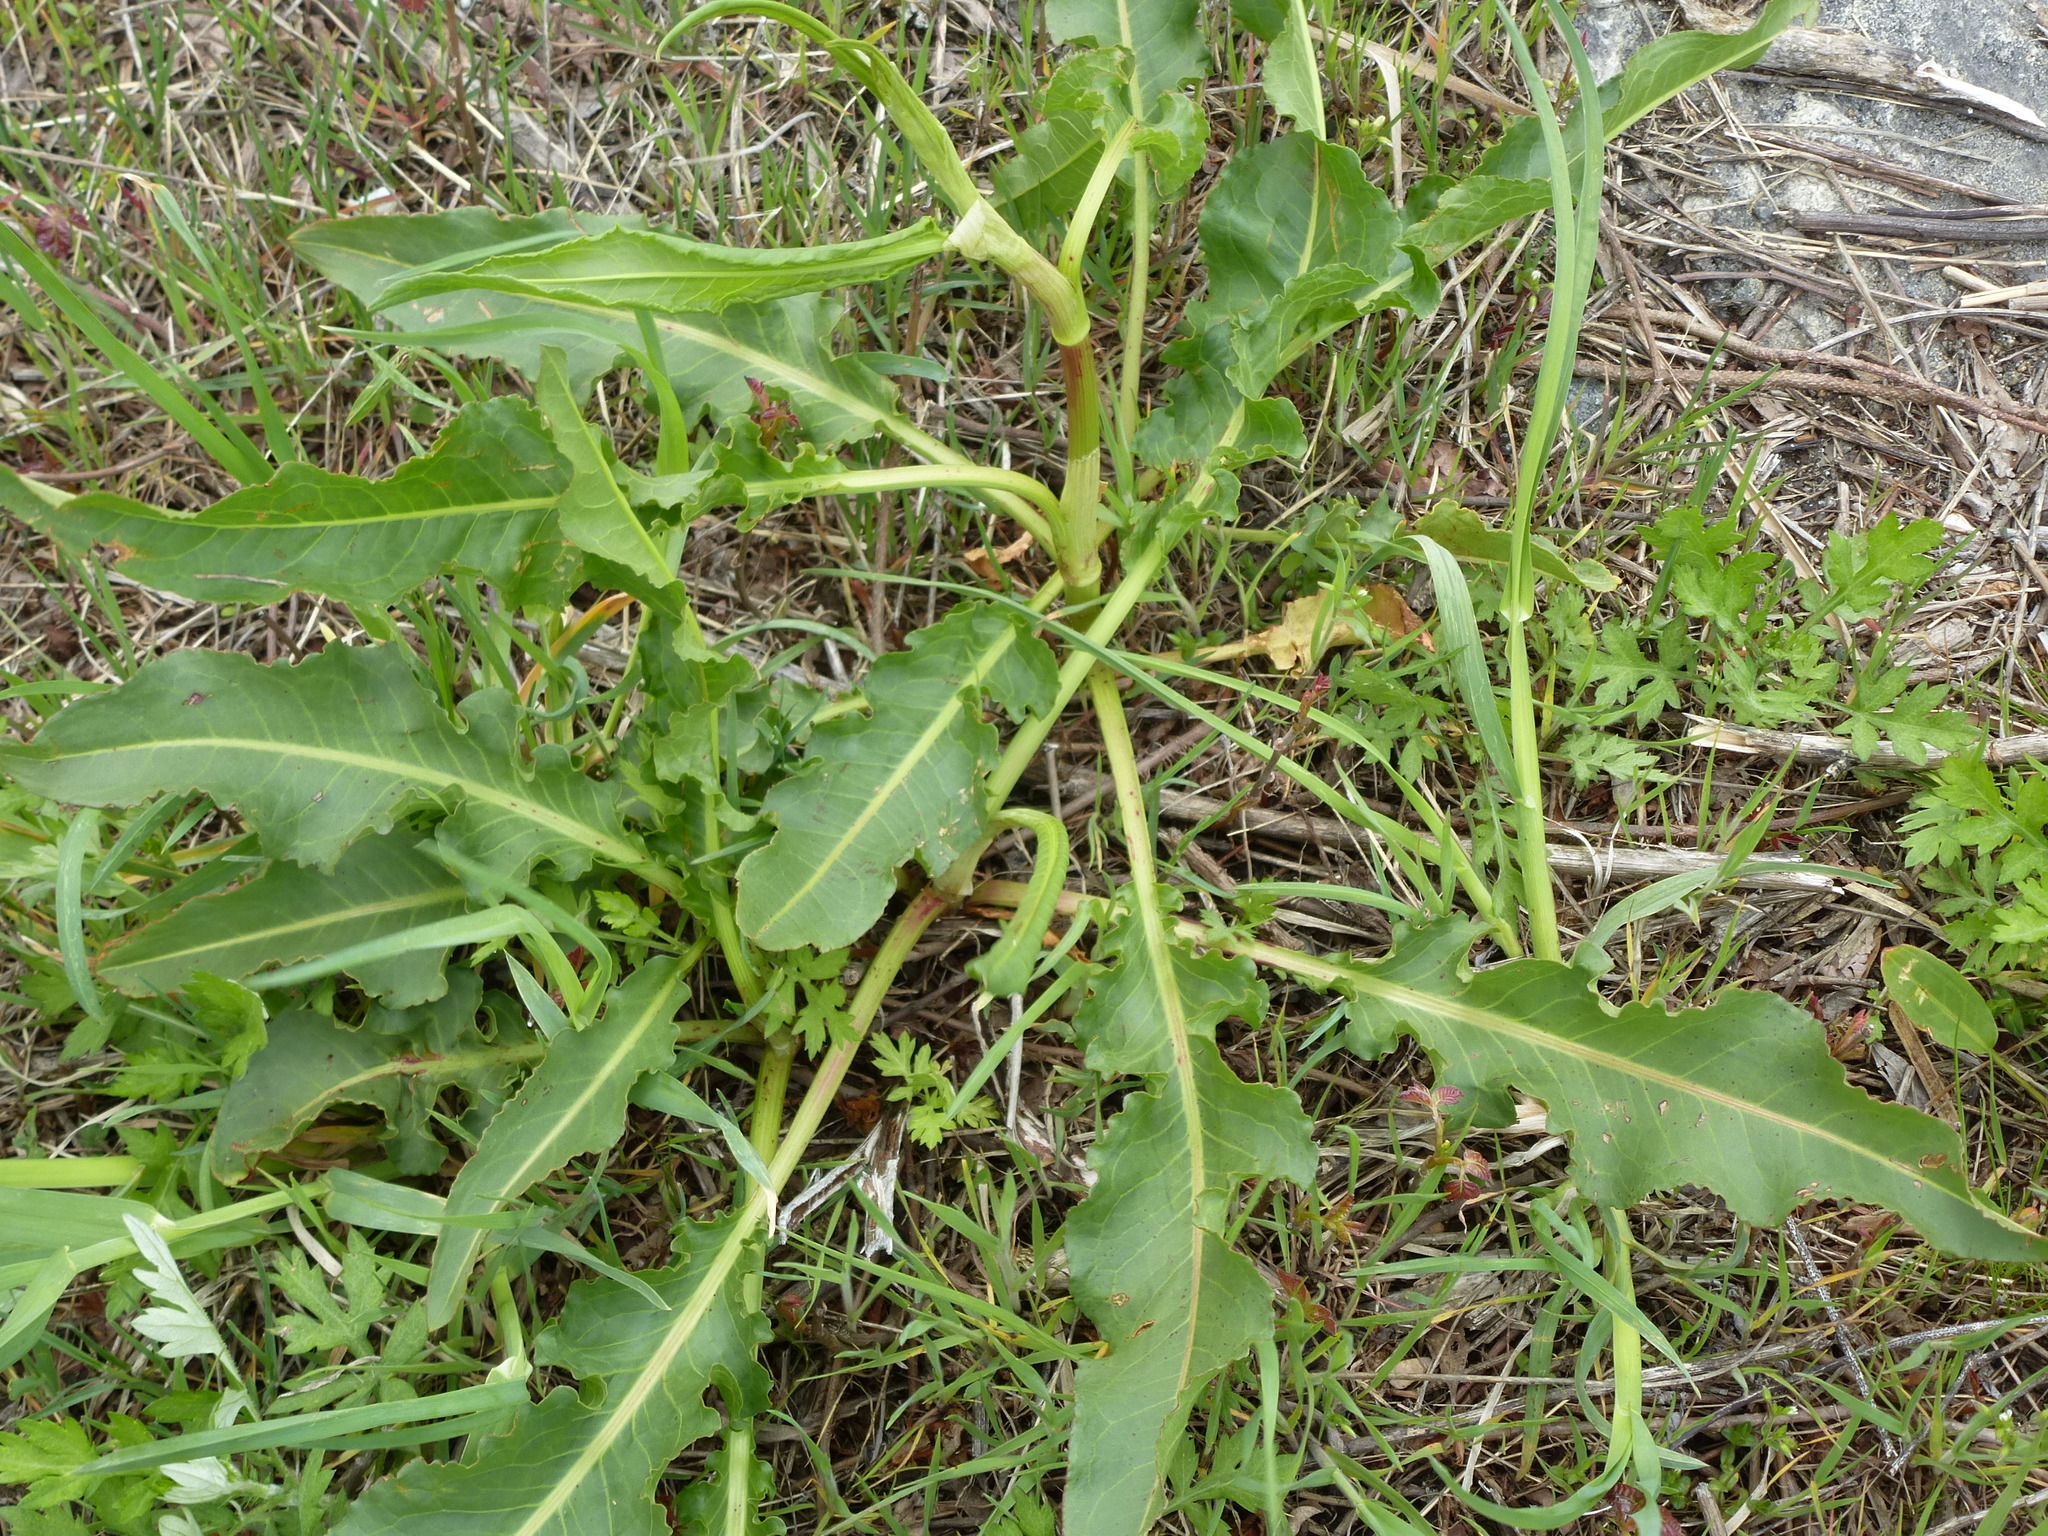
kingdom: Plantae
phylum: Tracheophyta
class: Magnoliopsida
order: Caryophyllales
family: Polygonaceae
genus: Rumex
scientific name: Rumex crispus
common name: Curled dock
